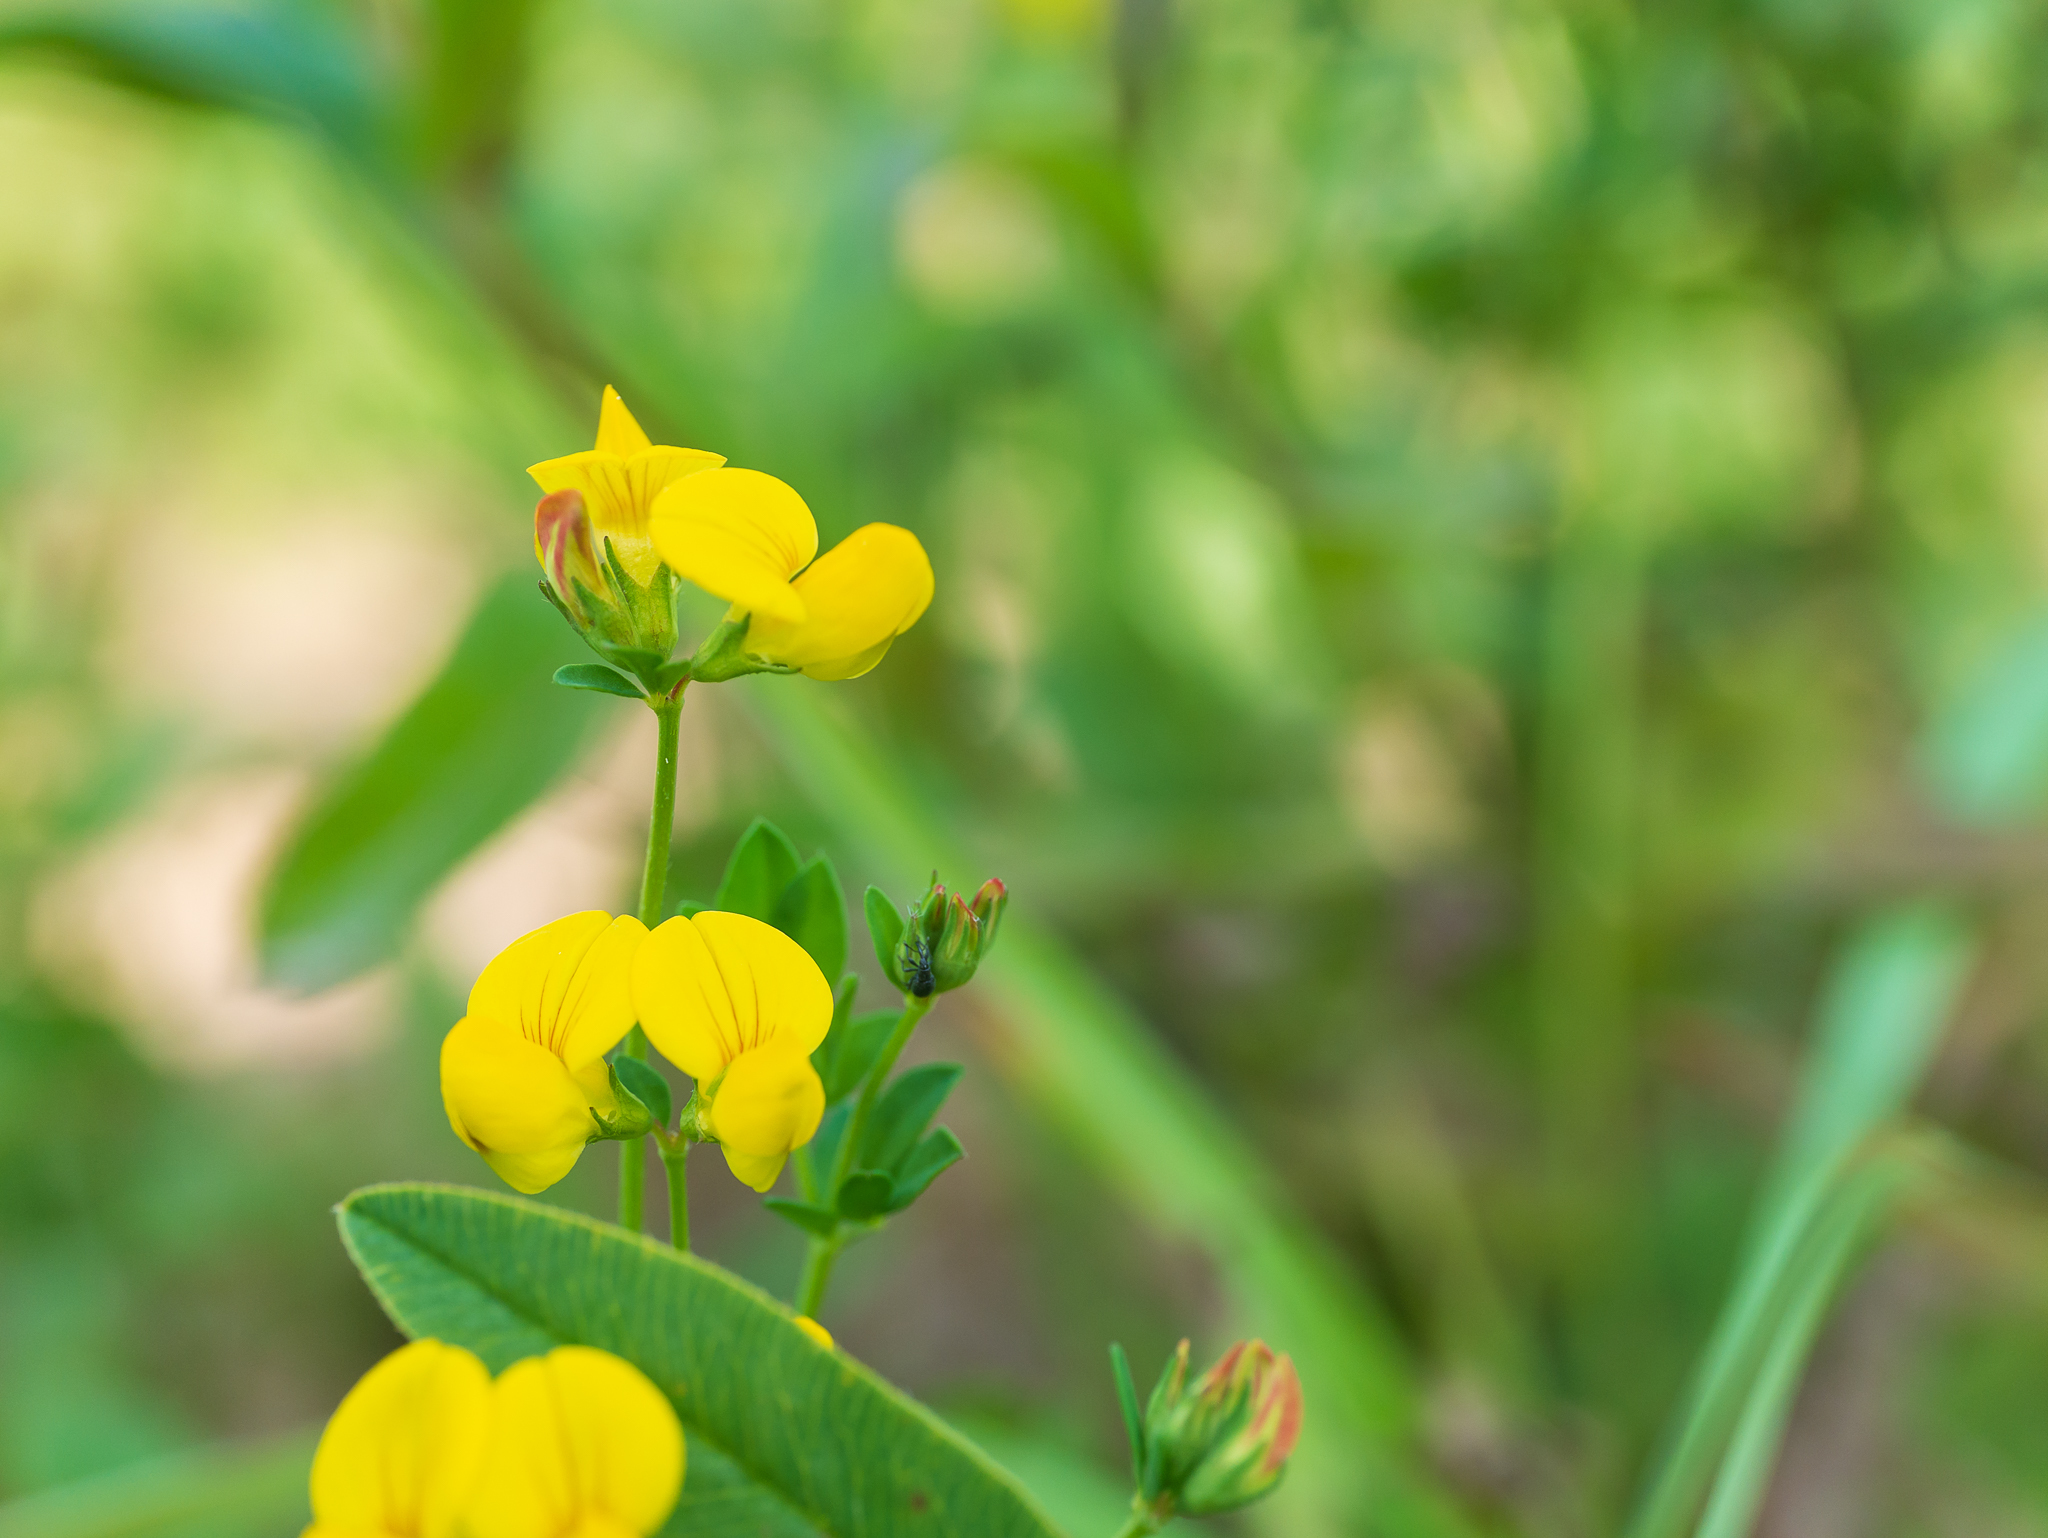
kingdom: Plantae
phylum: Tracheophyta
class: Magnoliopsida
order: Fabales
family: Fabaceae
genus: Lotus
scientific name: Lotus corniculatus
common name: Common bird's-foot-trefoil
